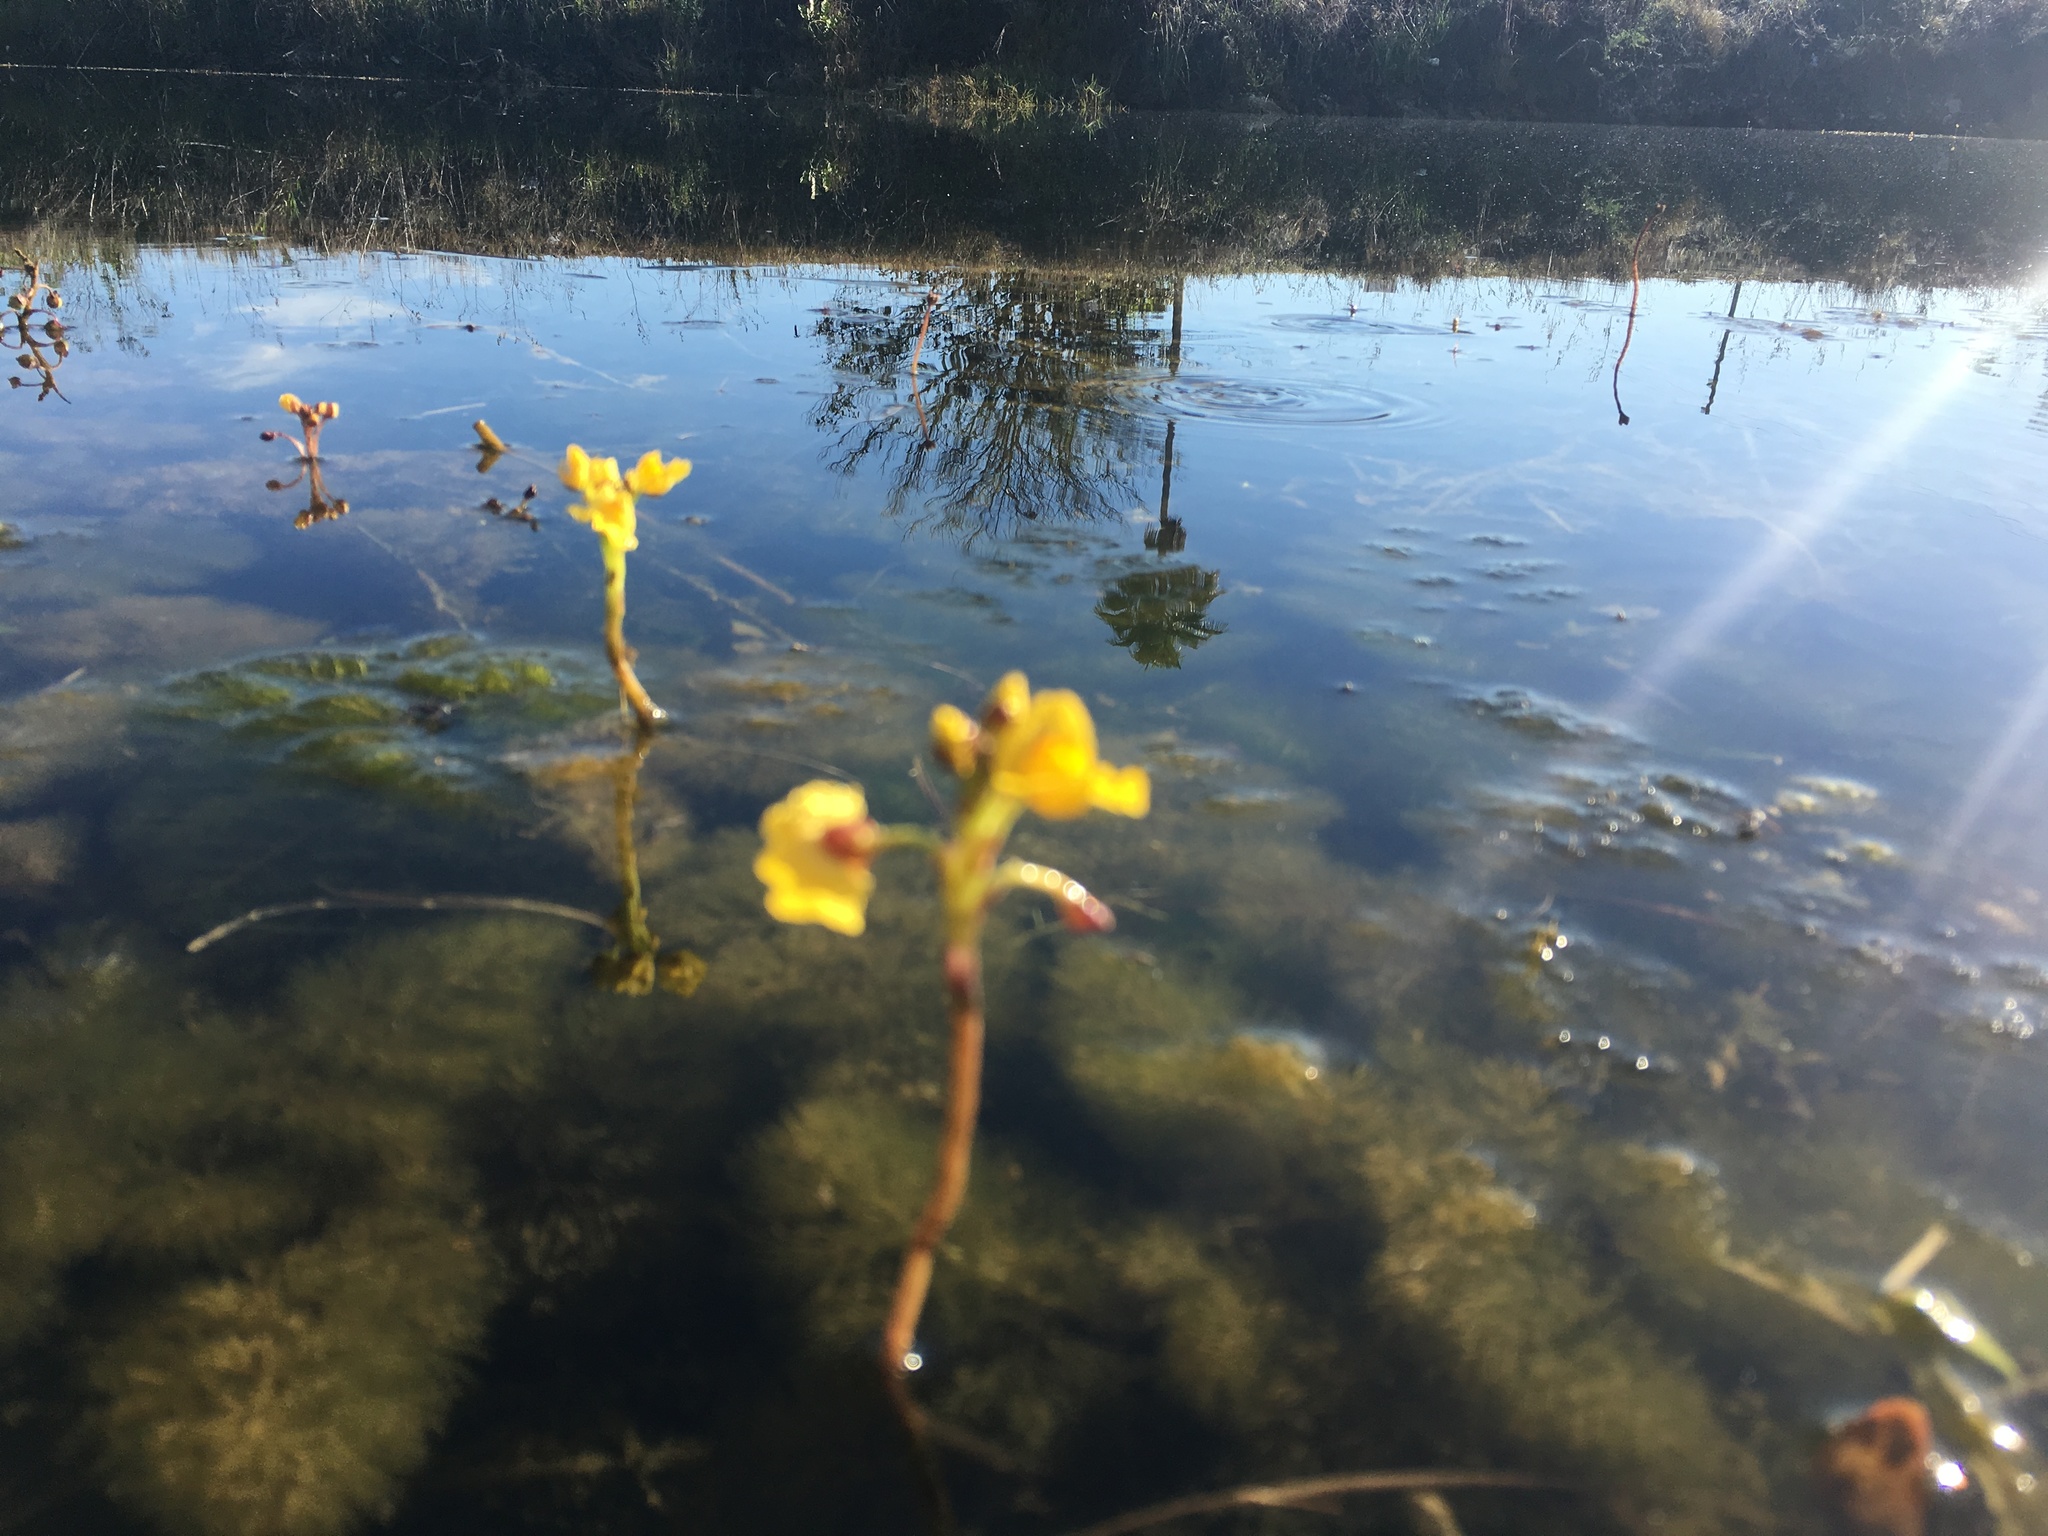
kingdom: Plantae
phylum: Tracheophyta
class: Magnoliopsida
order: Lamiales
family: Lentibulariaceae
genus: Utricularia
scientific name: Utricularia foliosa
